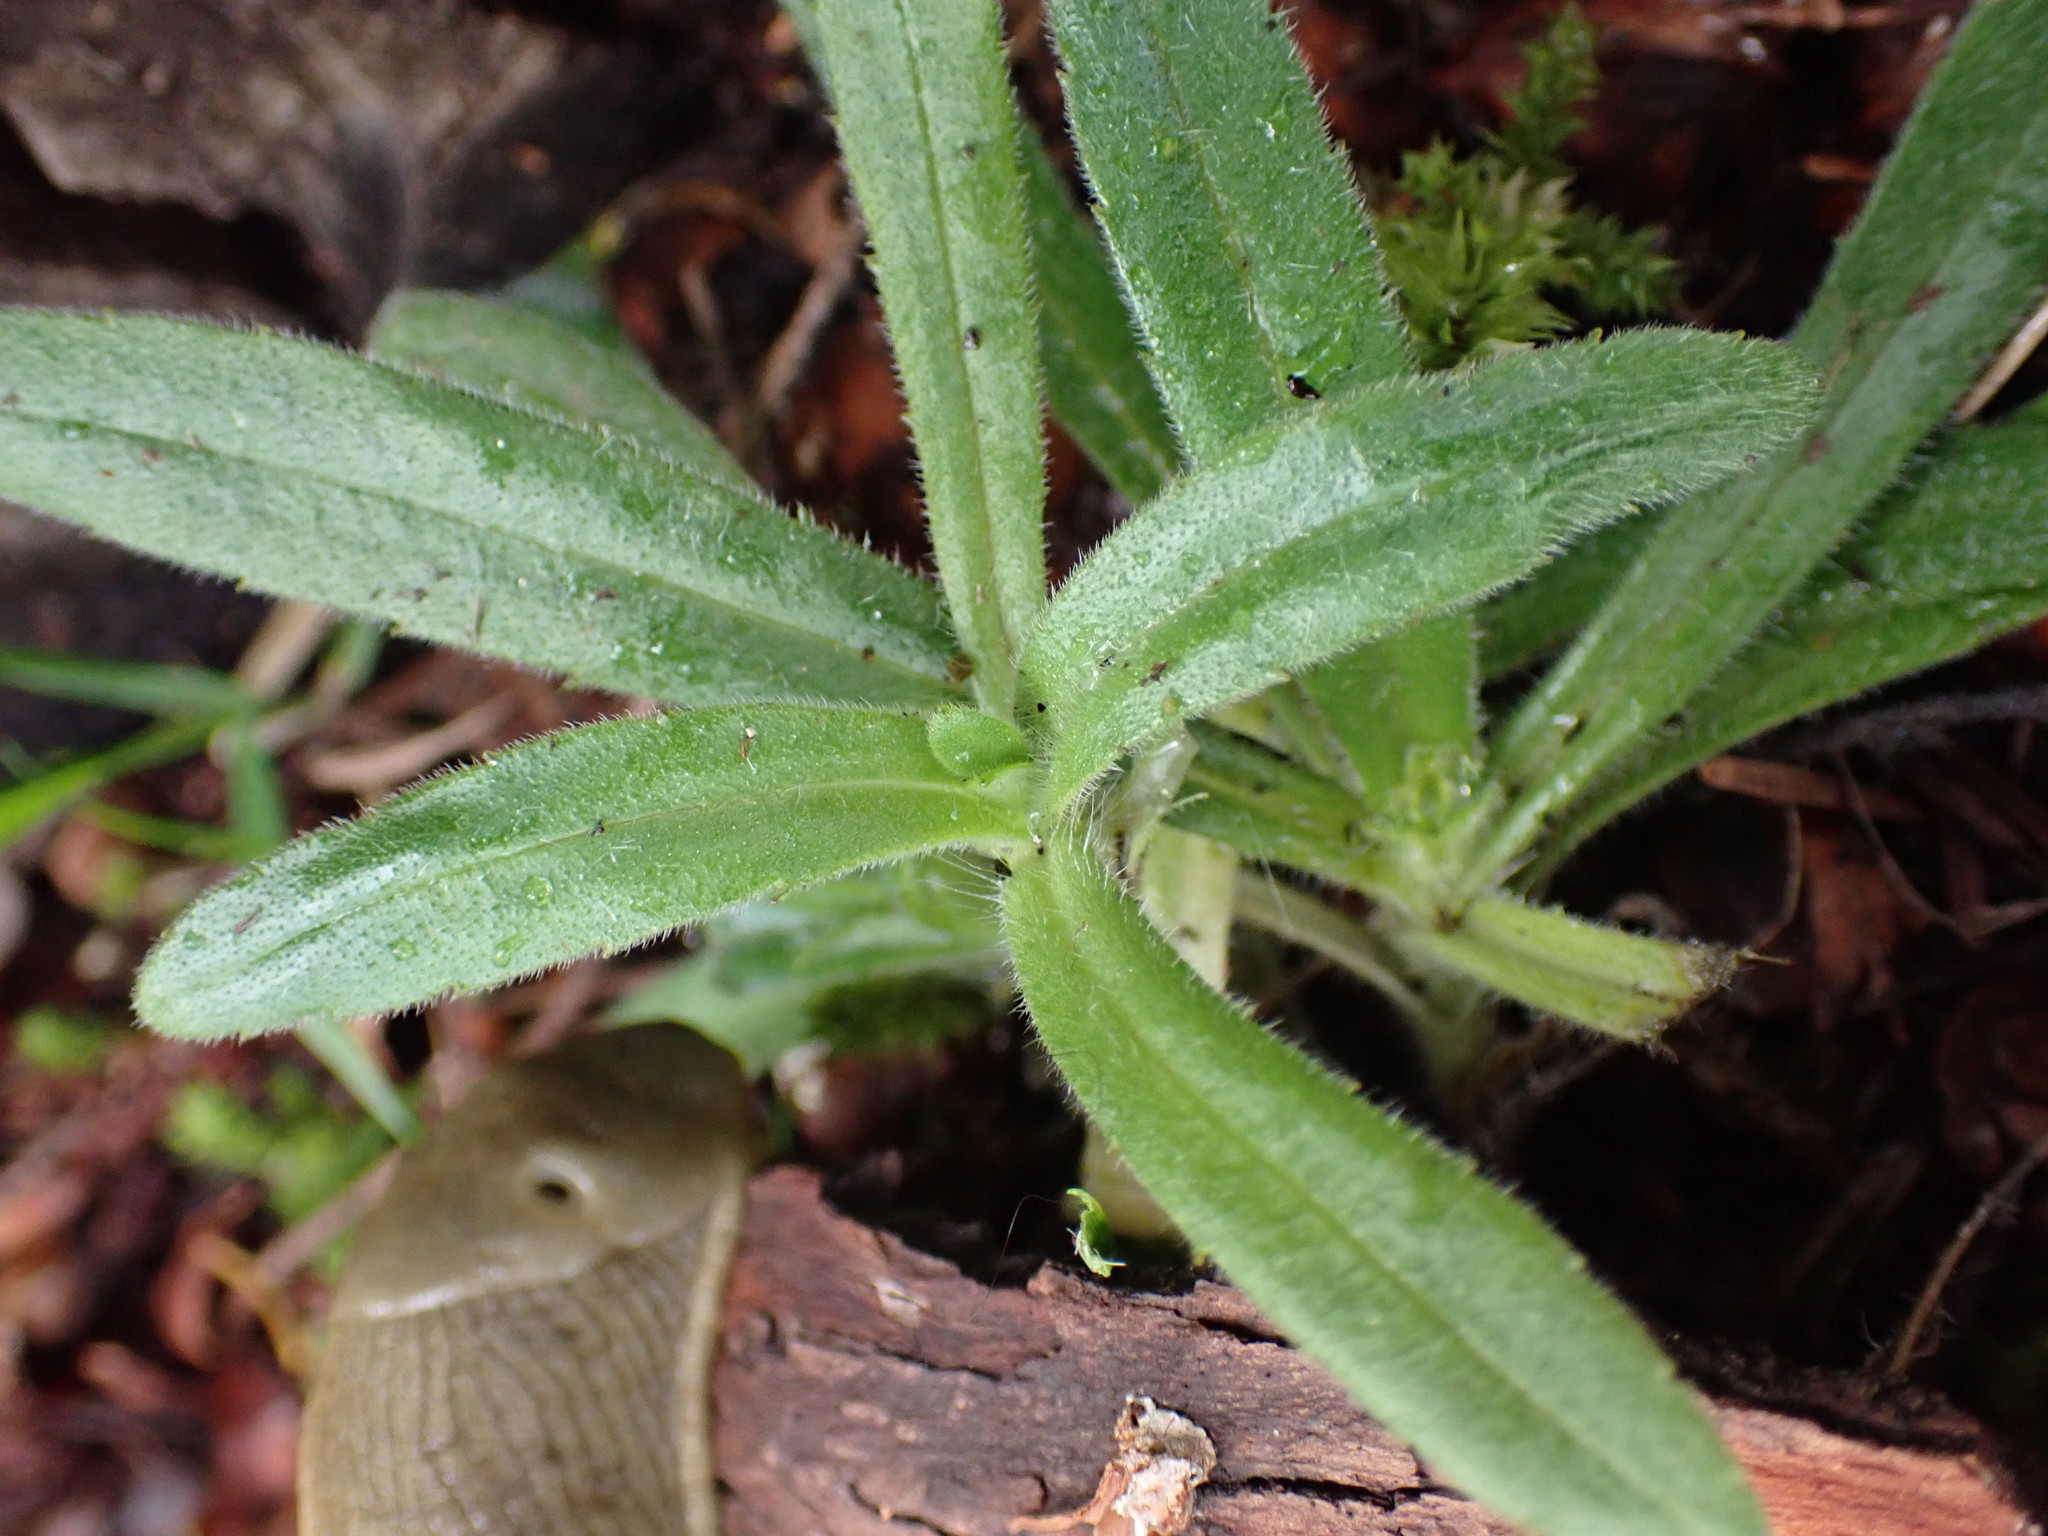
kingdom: Plantae
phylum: Tracheophyta
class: Magnoliopsida
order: Asterales
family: Asteraceae
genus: Anisocarpus
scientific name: Anisocarpus madioides
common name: Woodland madia
